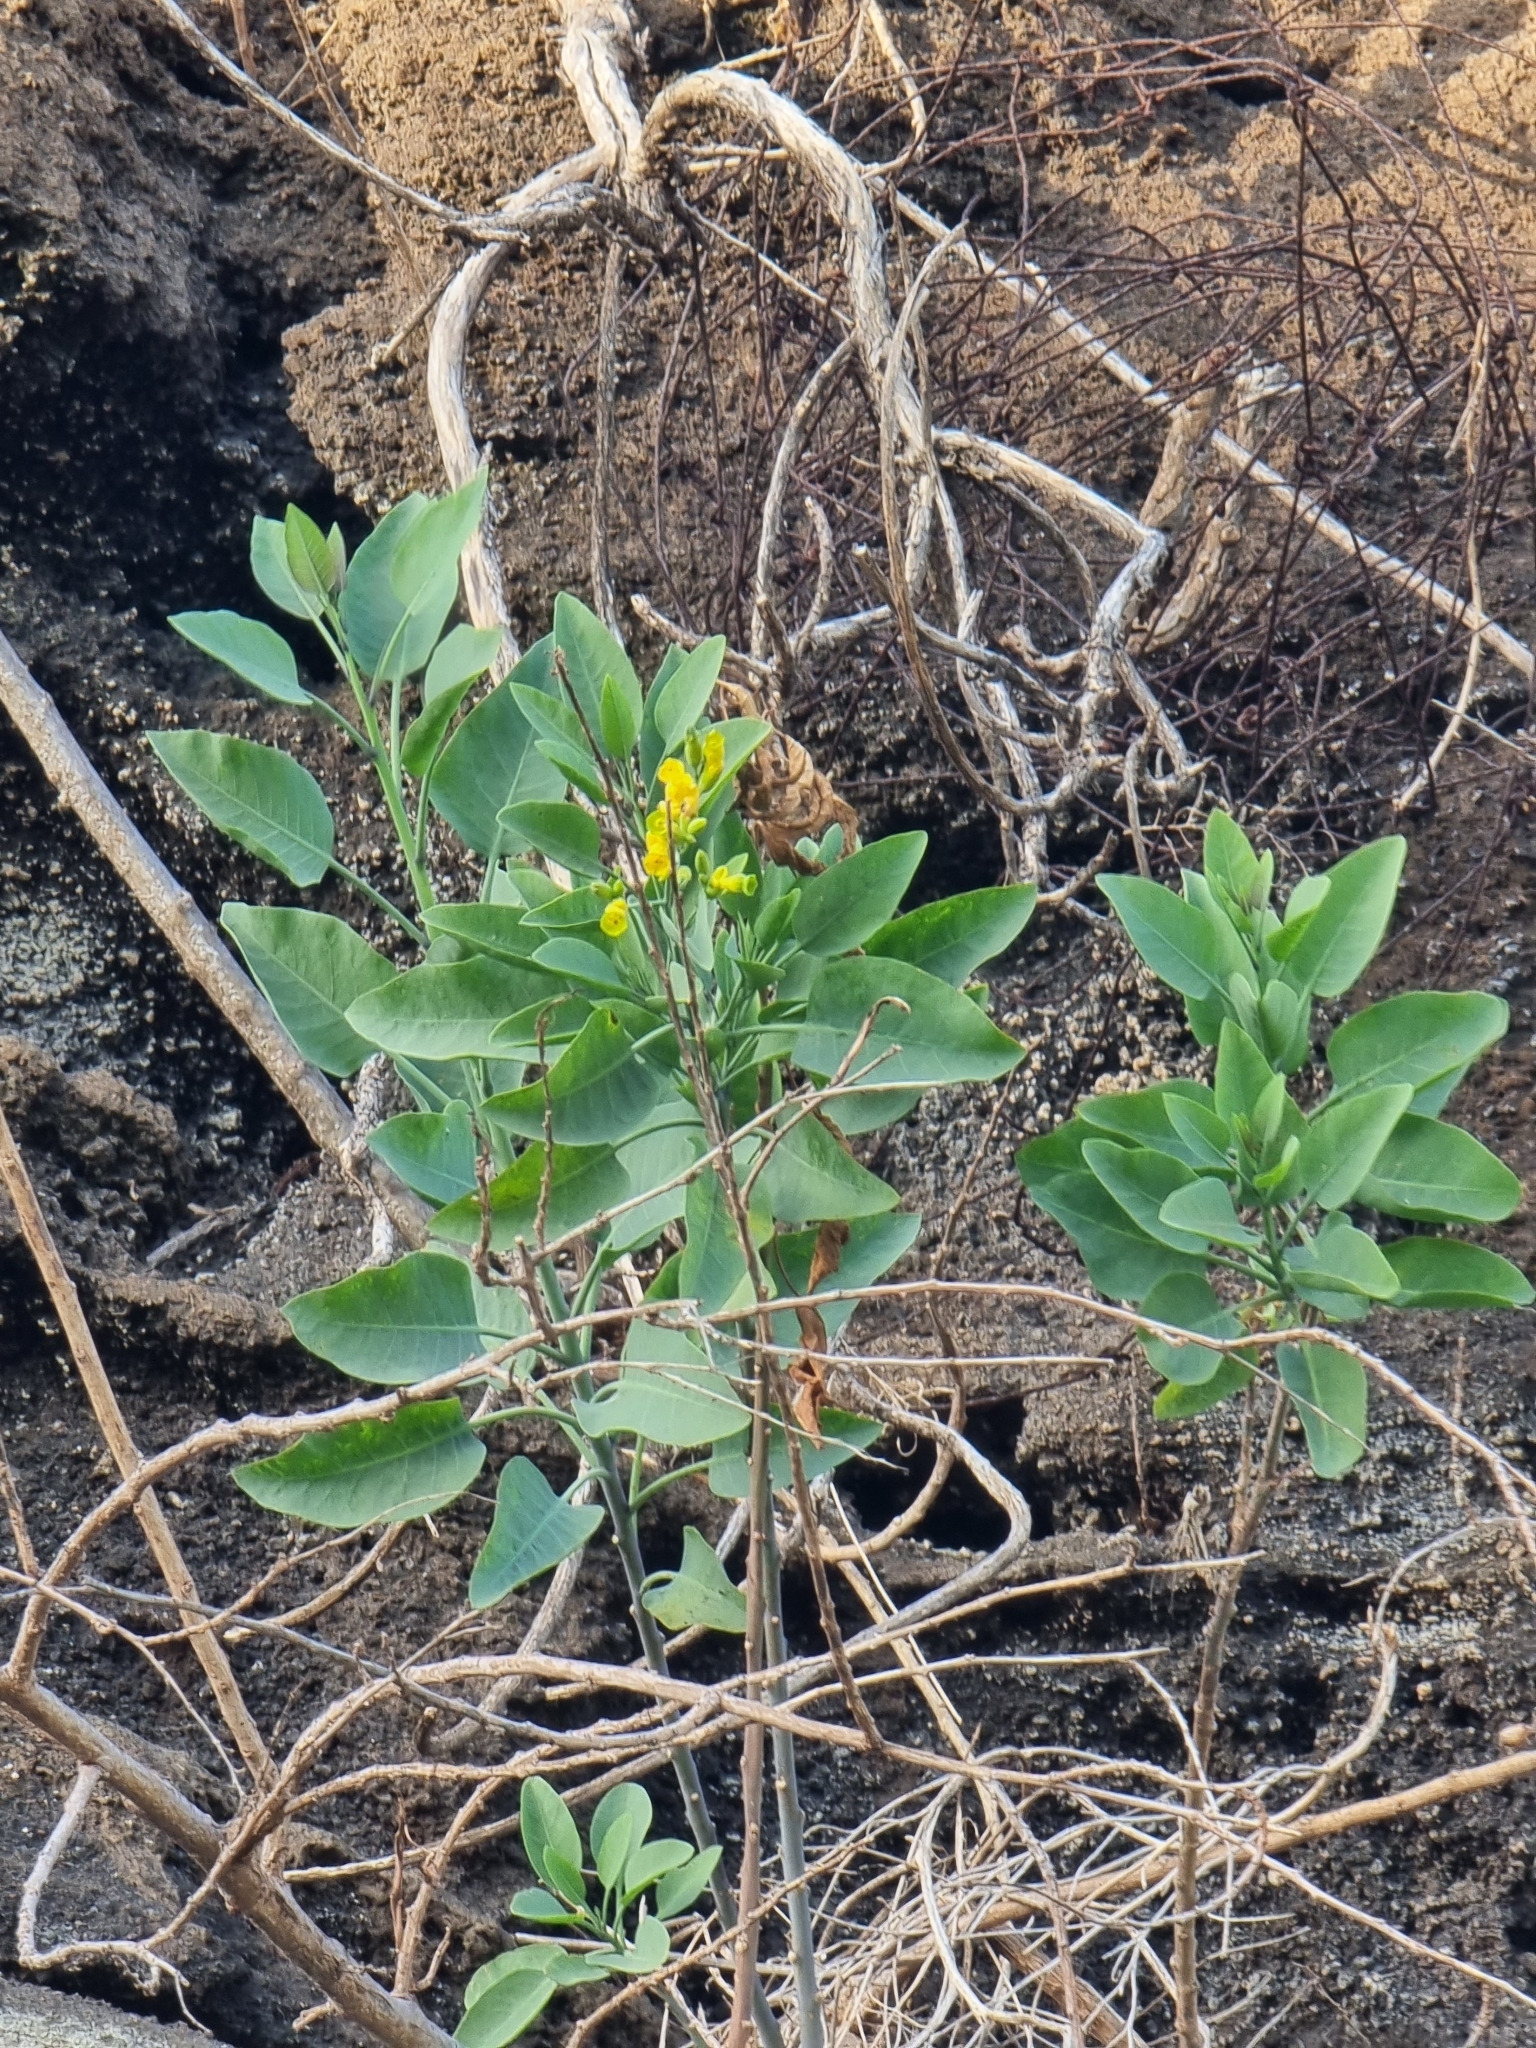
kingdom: Plantae
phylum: Tracheophyta
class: Magnoliopsida
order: Solanales
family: Solanaceae
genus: Nicotiana
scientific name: Nicotiana glauca
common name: Tree tobacco
